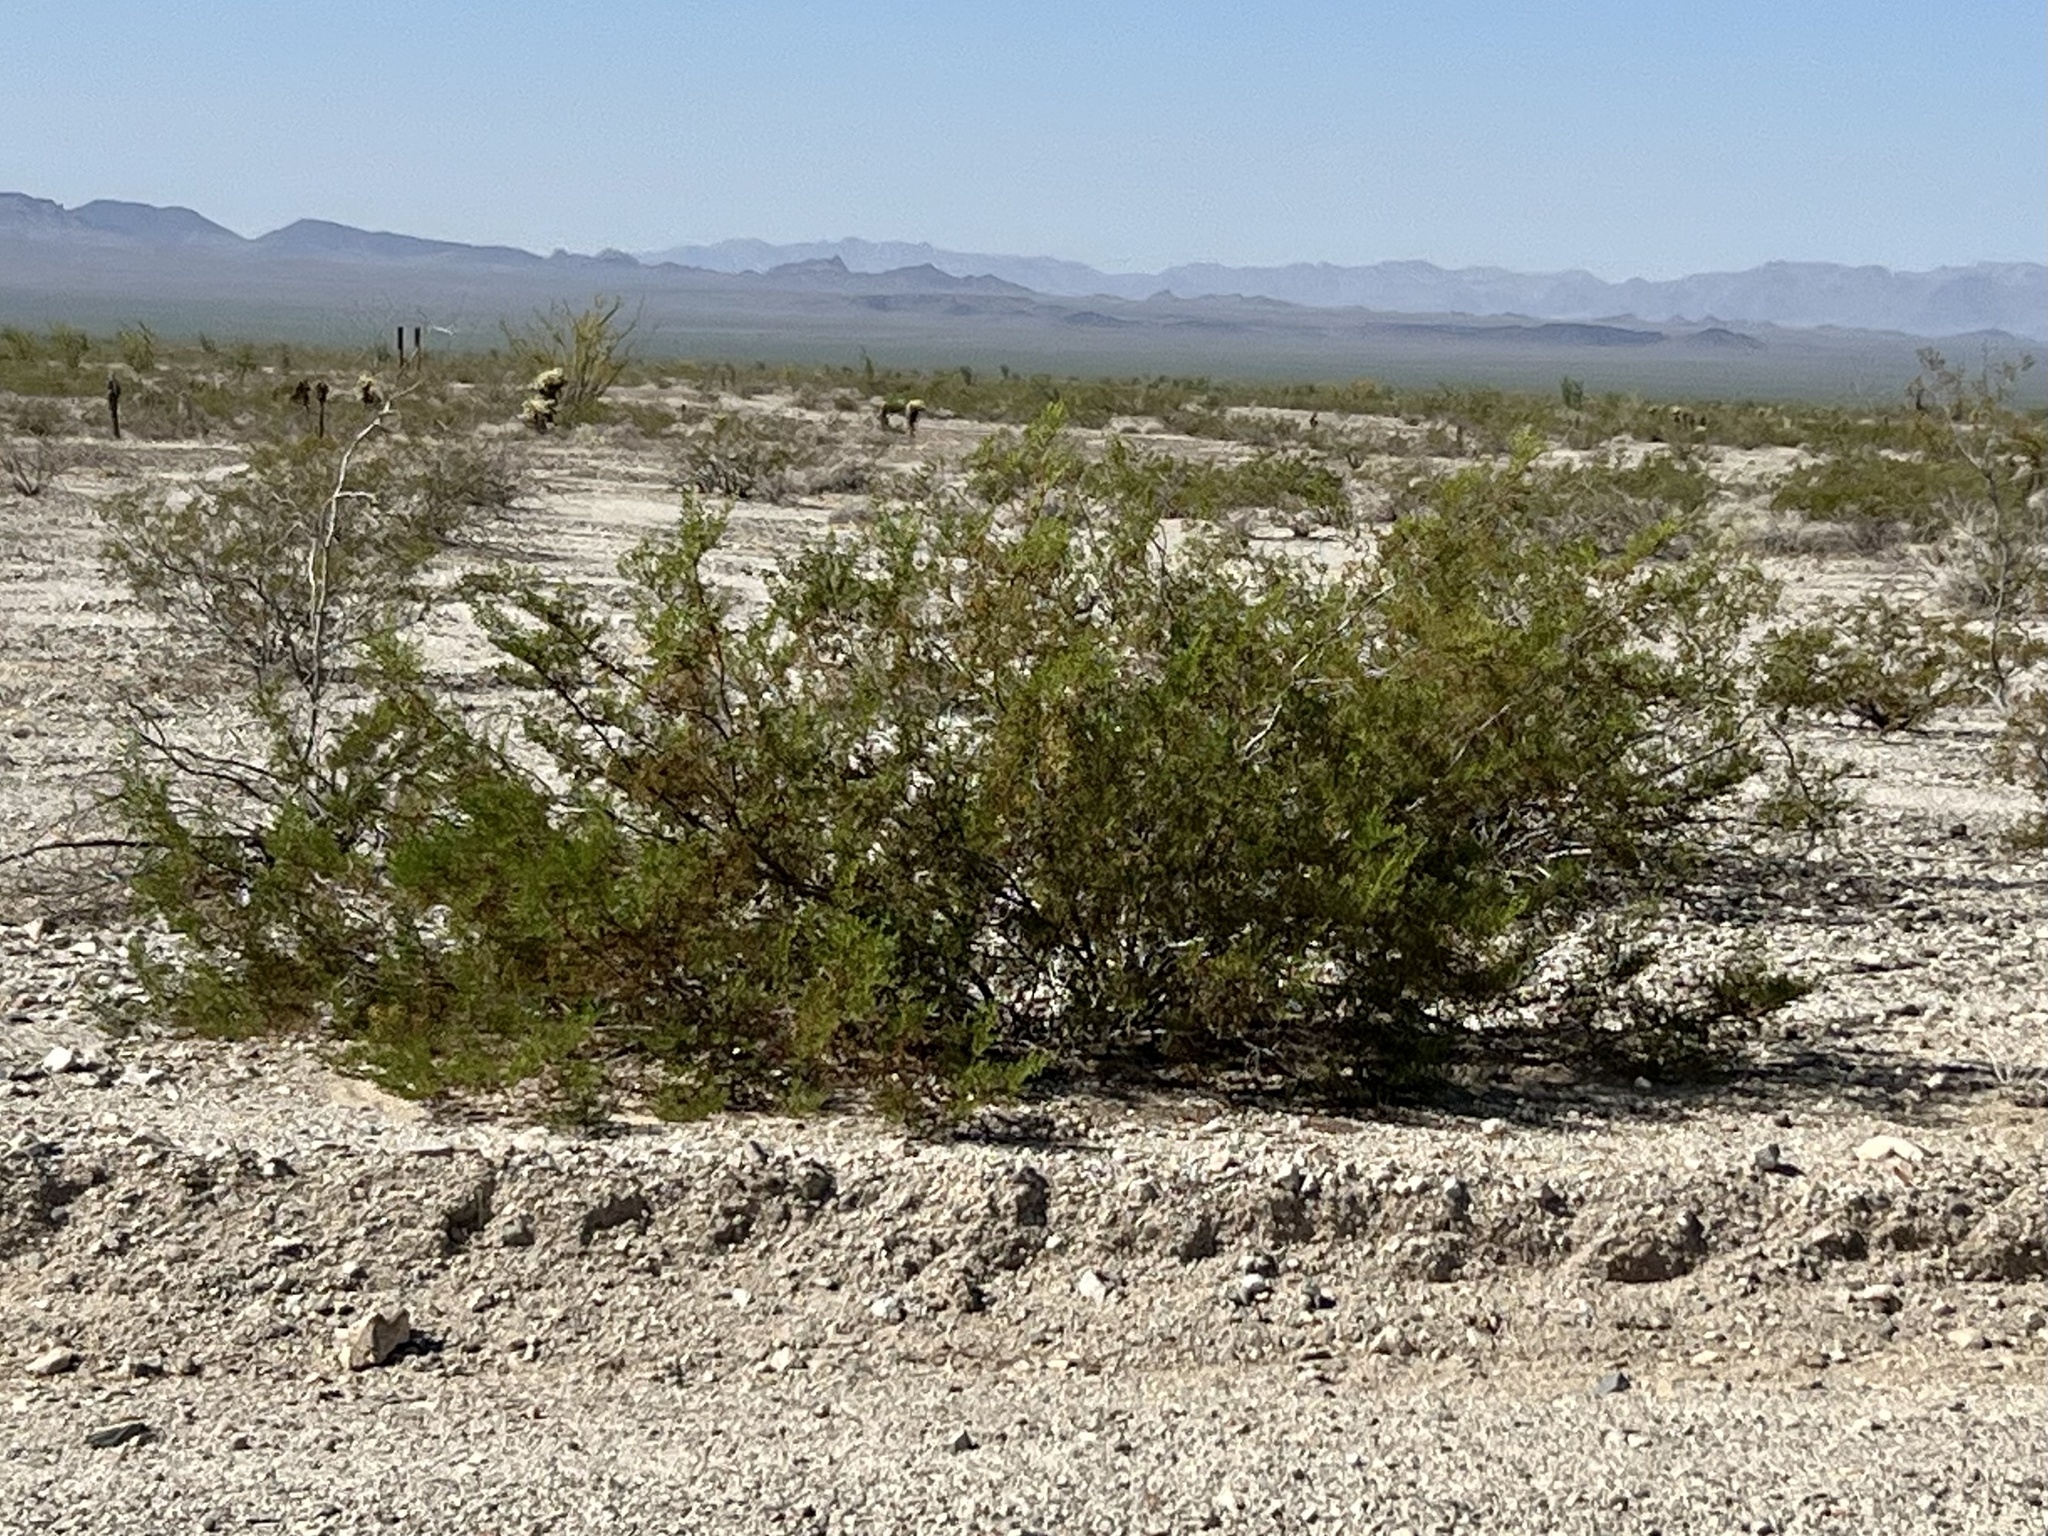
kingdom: Plantae
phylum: Tracheophyta
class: Magnoliopsida
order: Zygophyllales
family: Zygophyllaceae
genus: Larrea
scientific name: Larrea tridentata
